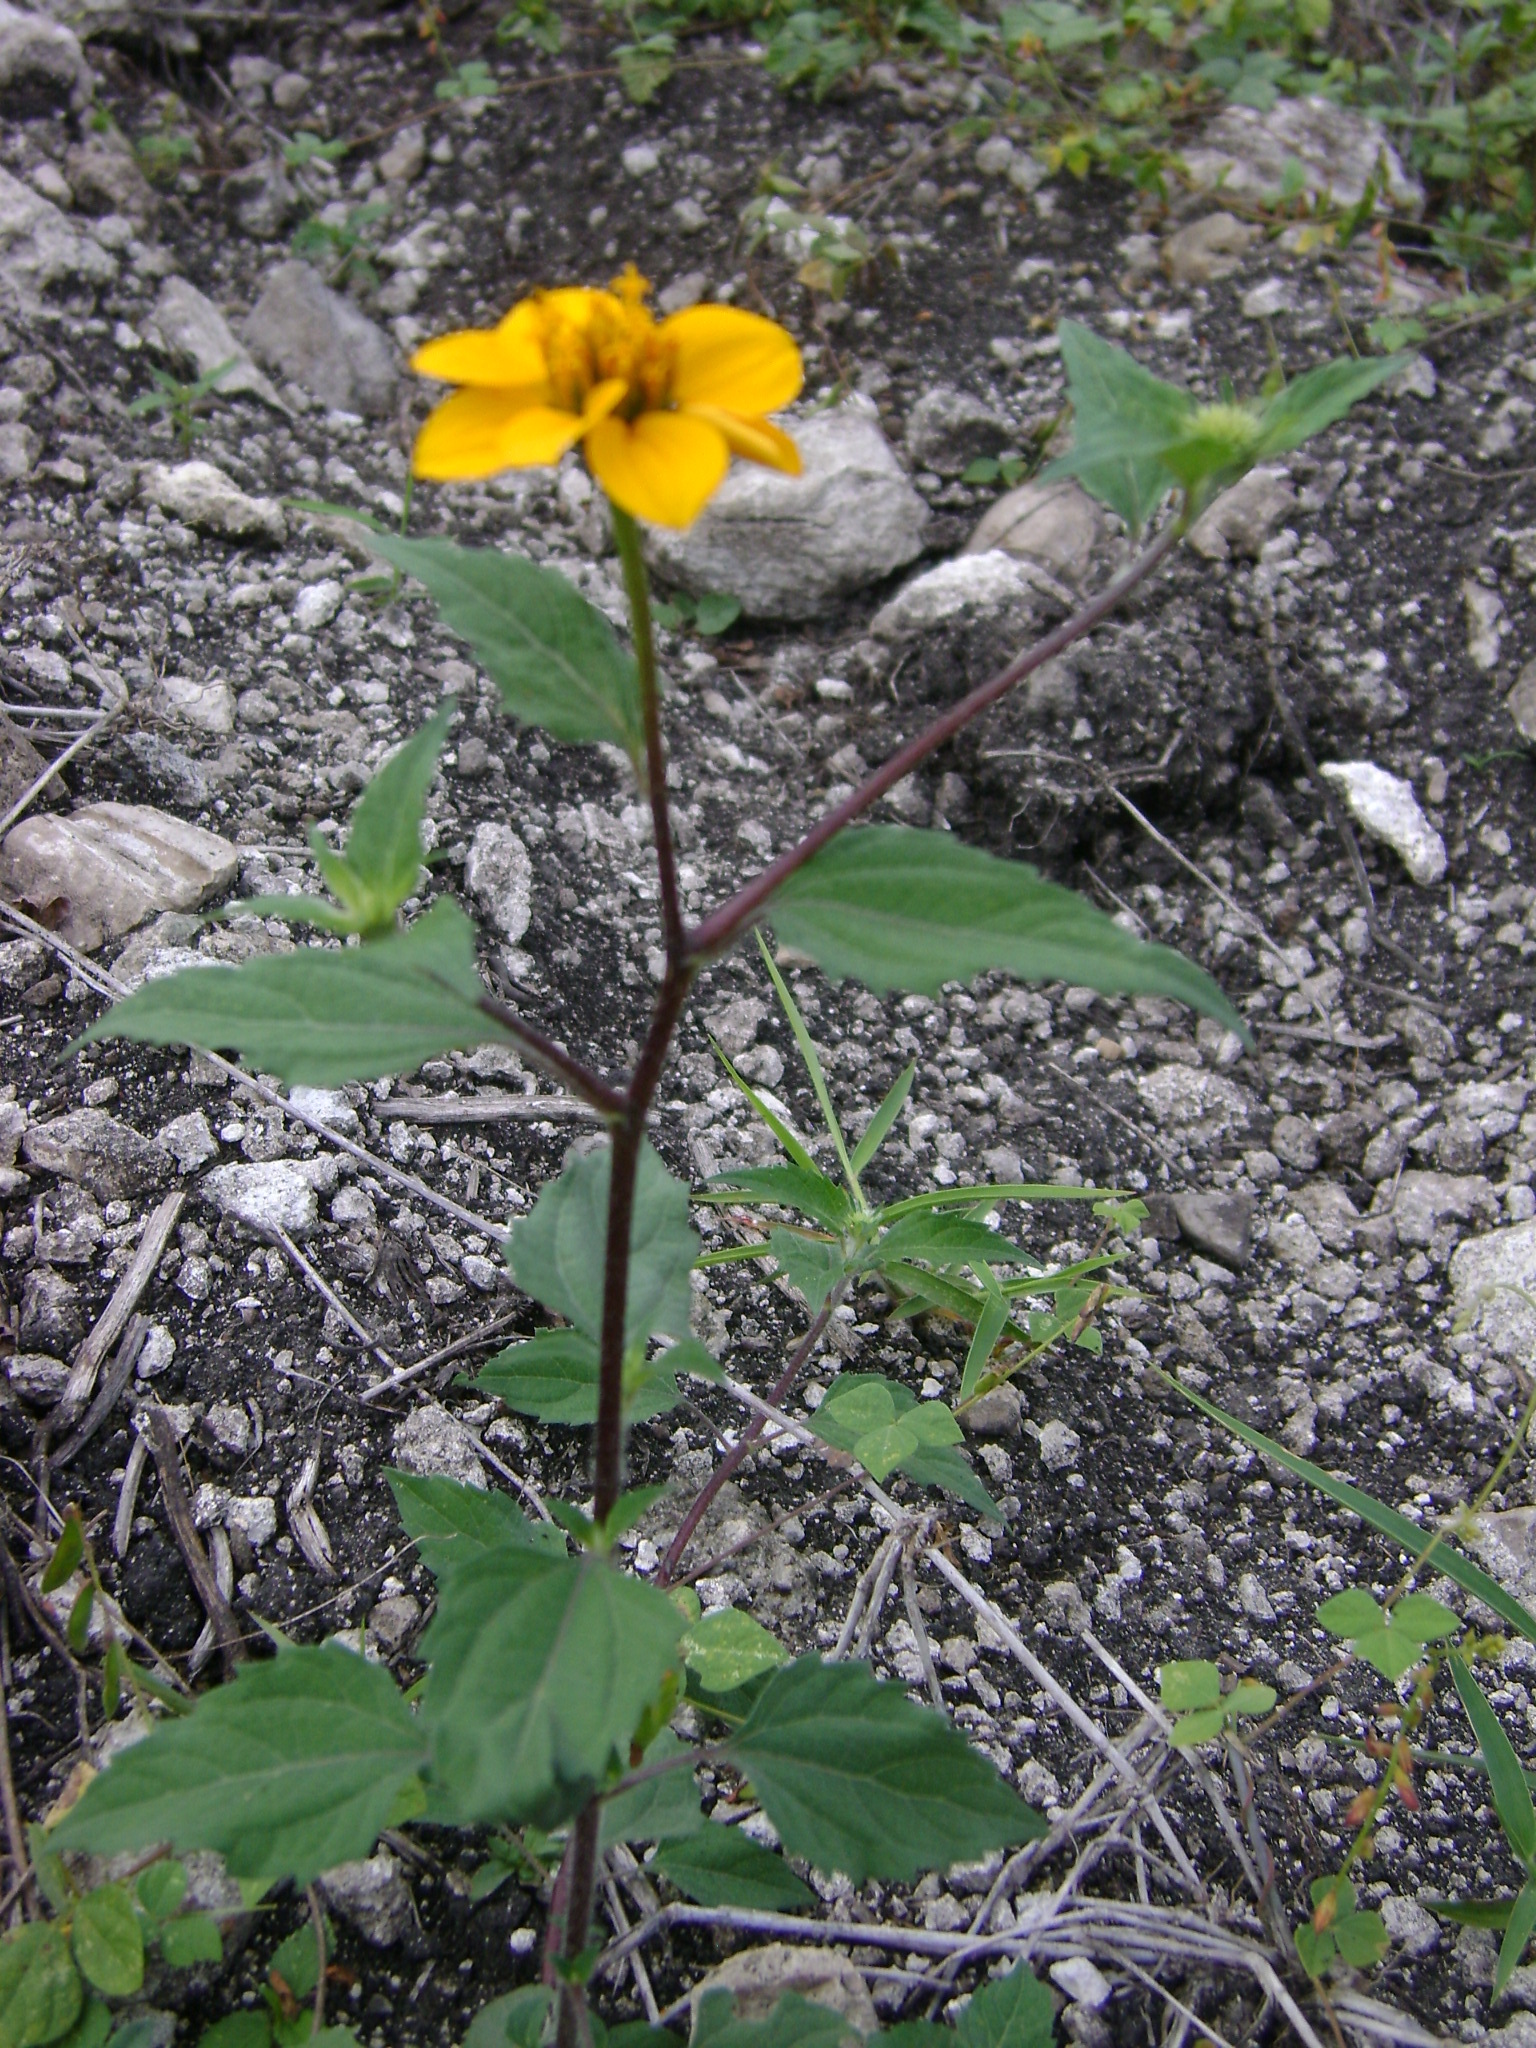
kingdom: Plantae
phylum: Tracheophyta
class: Magnoliopsida
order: Asterales
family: Asteraceae
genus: Sclerocarpus
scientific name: Sclerocarpus uniserialis
